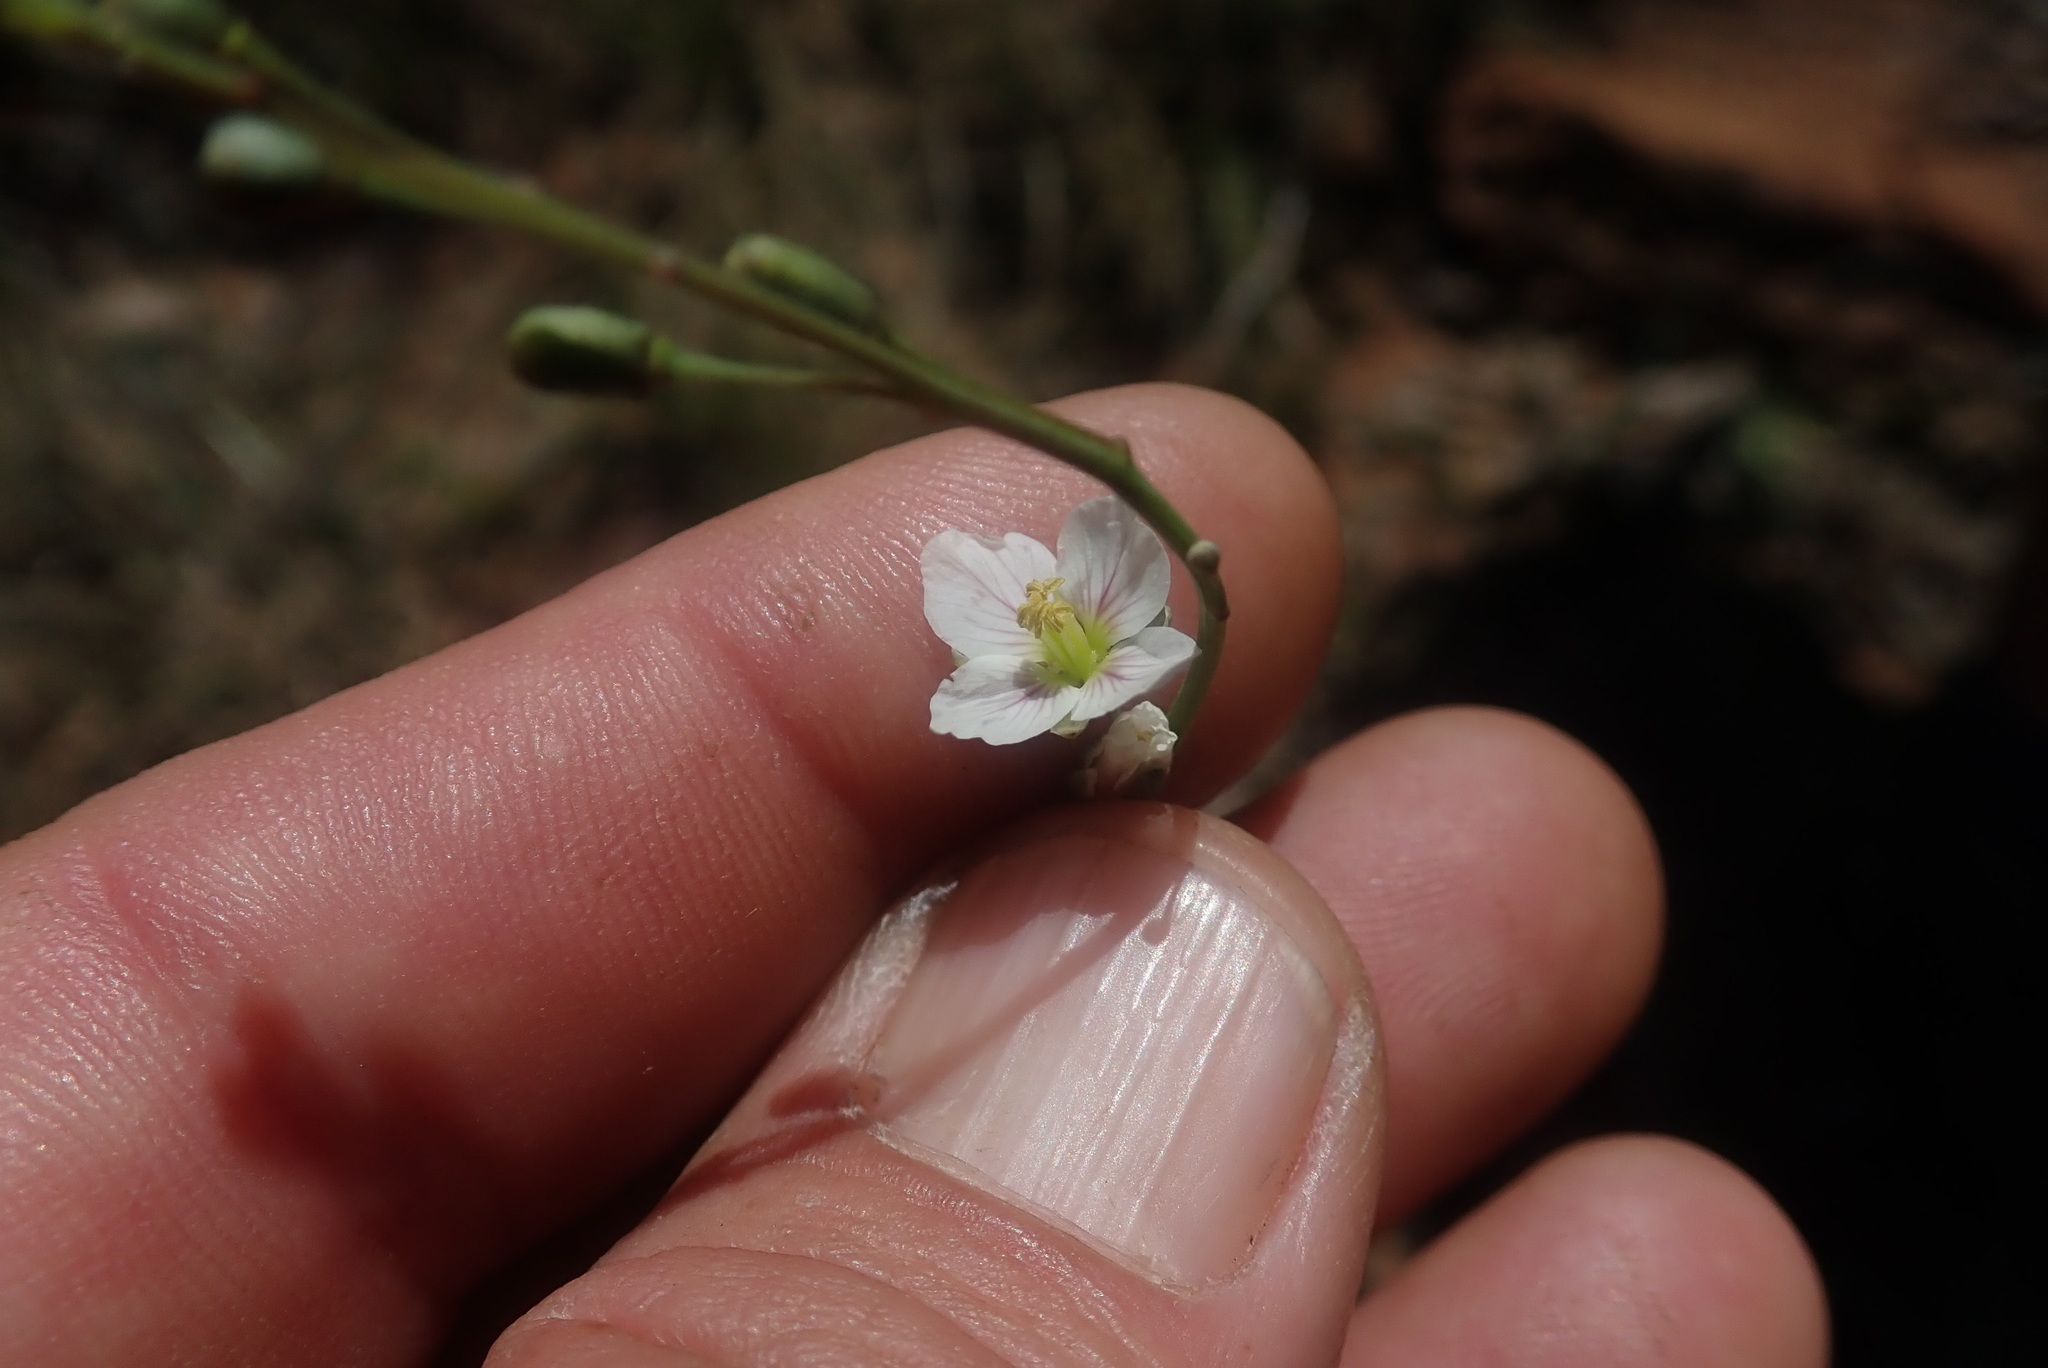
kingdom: Plantae
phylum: Tracheophyta
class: Magnoliopsida
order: Brassicales
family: Brassicaceae
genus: Heliophila
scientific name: Heliophila rigidiuscula
